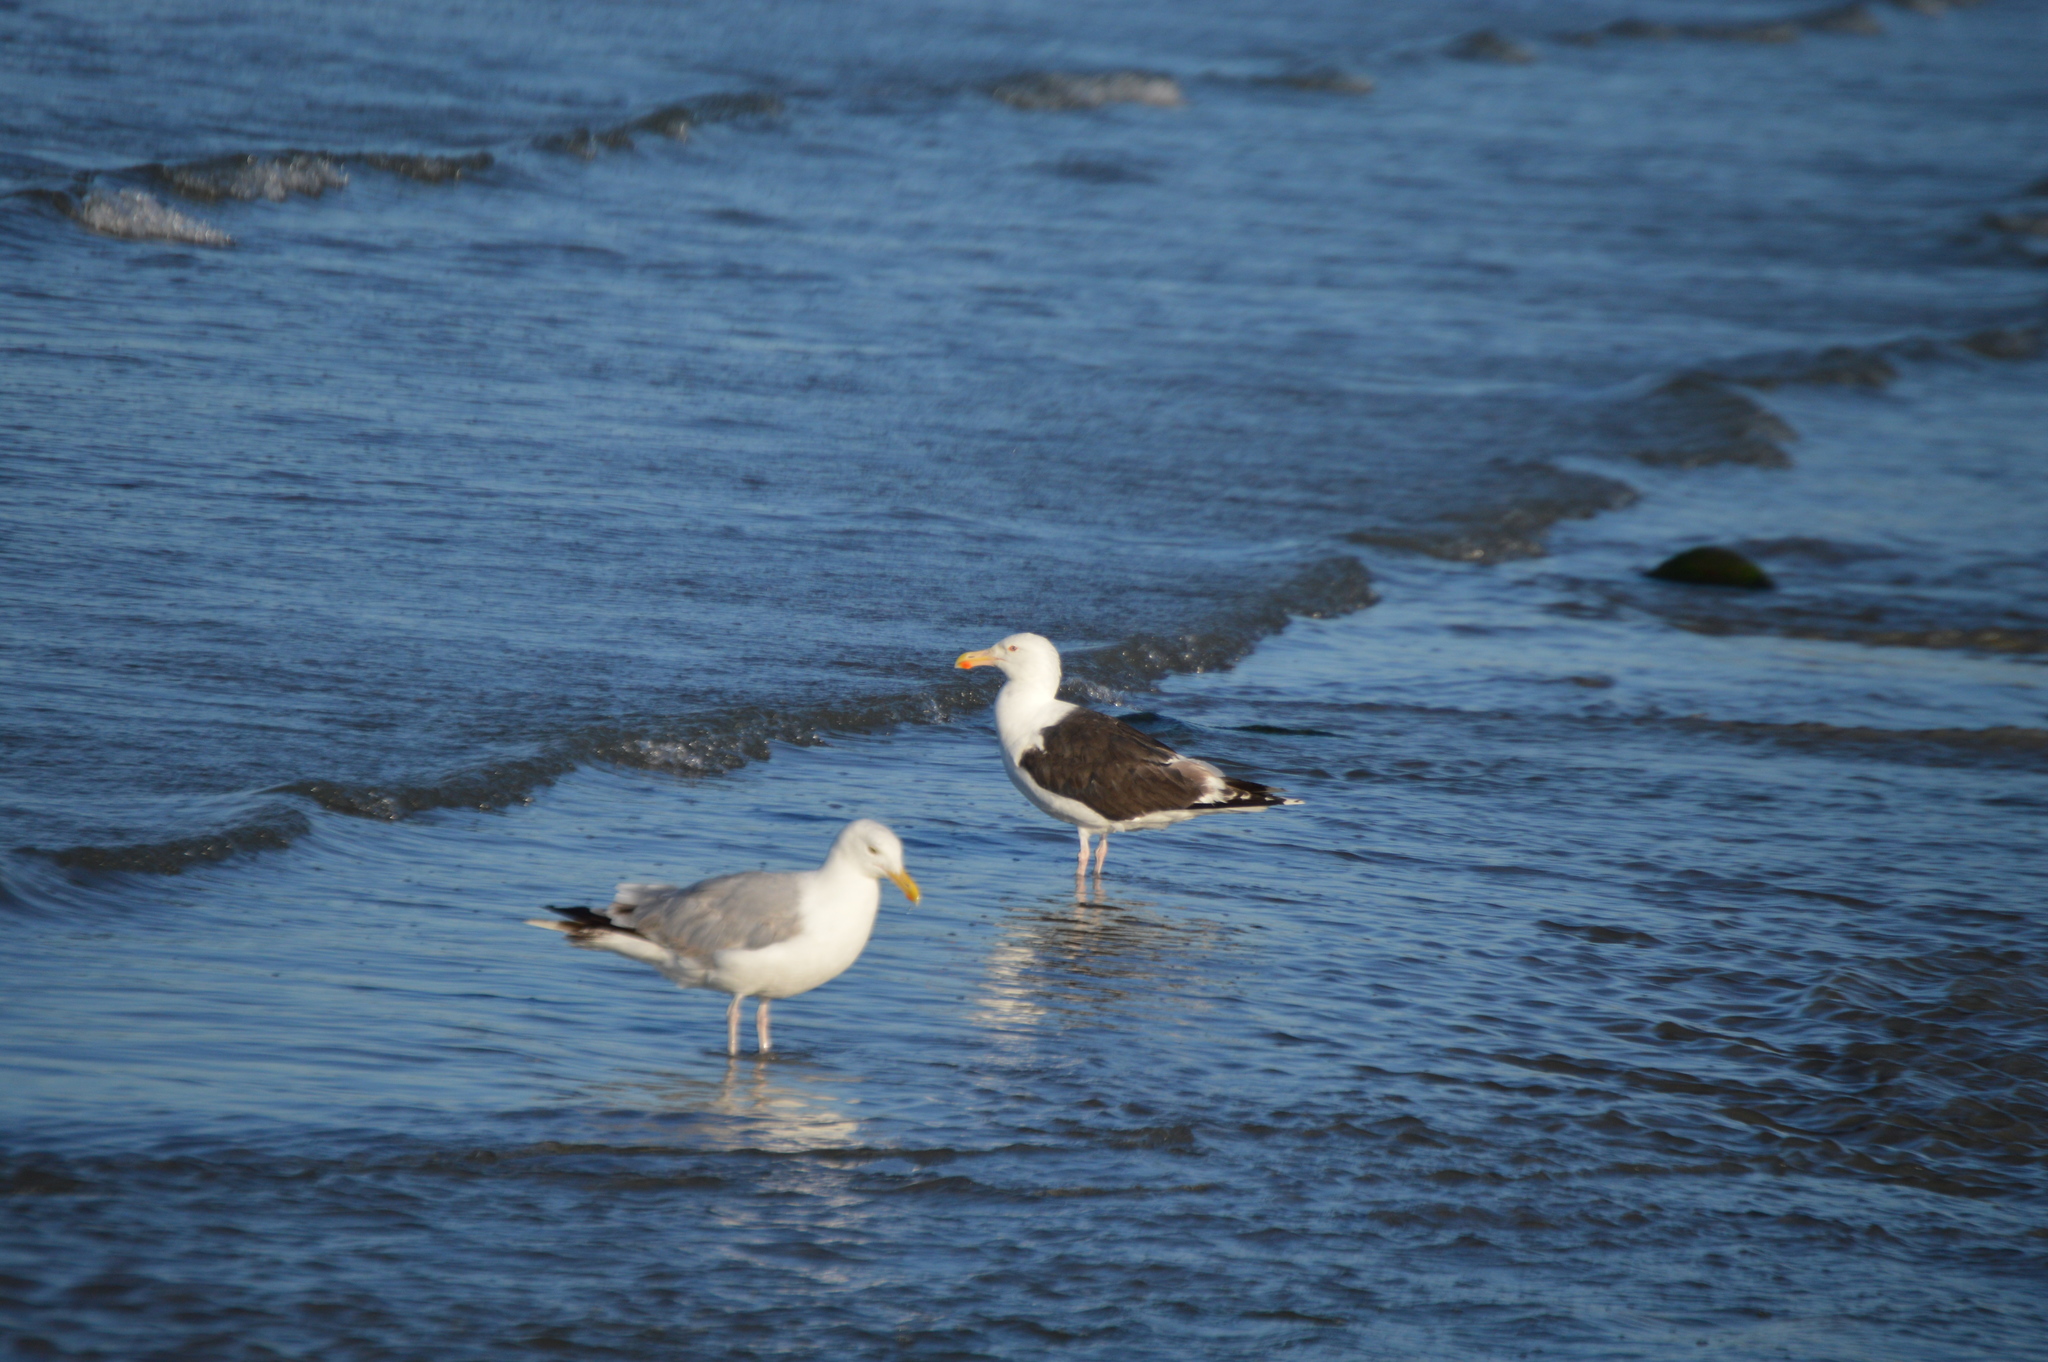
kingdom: Animalia
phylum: Chordata
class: Aves
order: Charadriiformes
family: Laridae
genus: Larus
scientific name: Larus marinus
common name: Great black-backed gull
